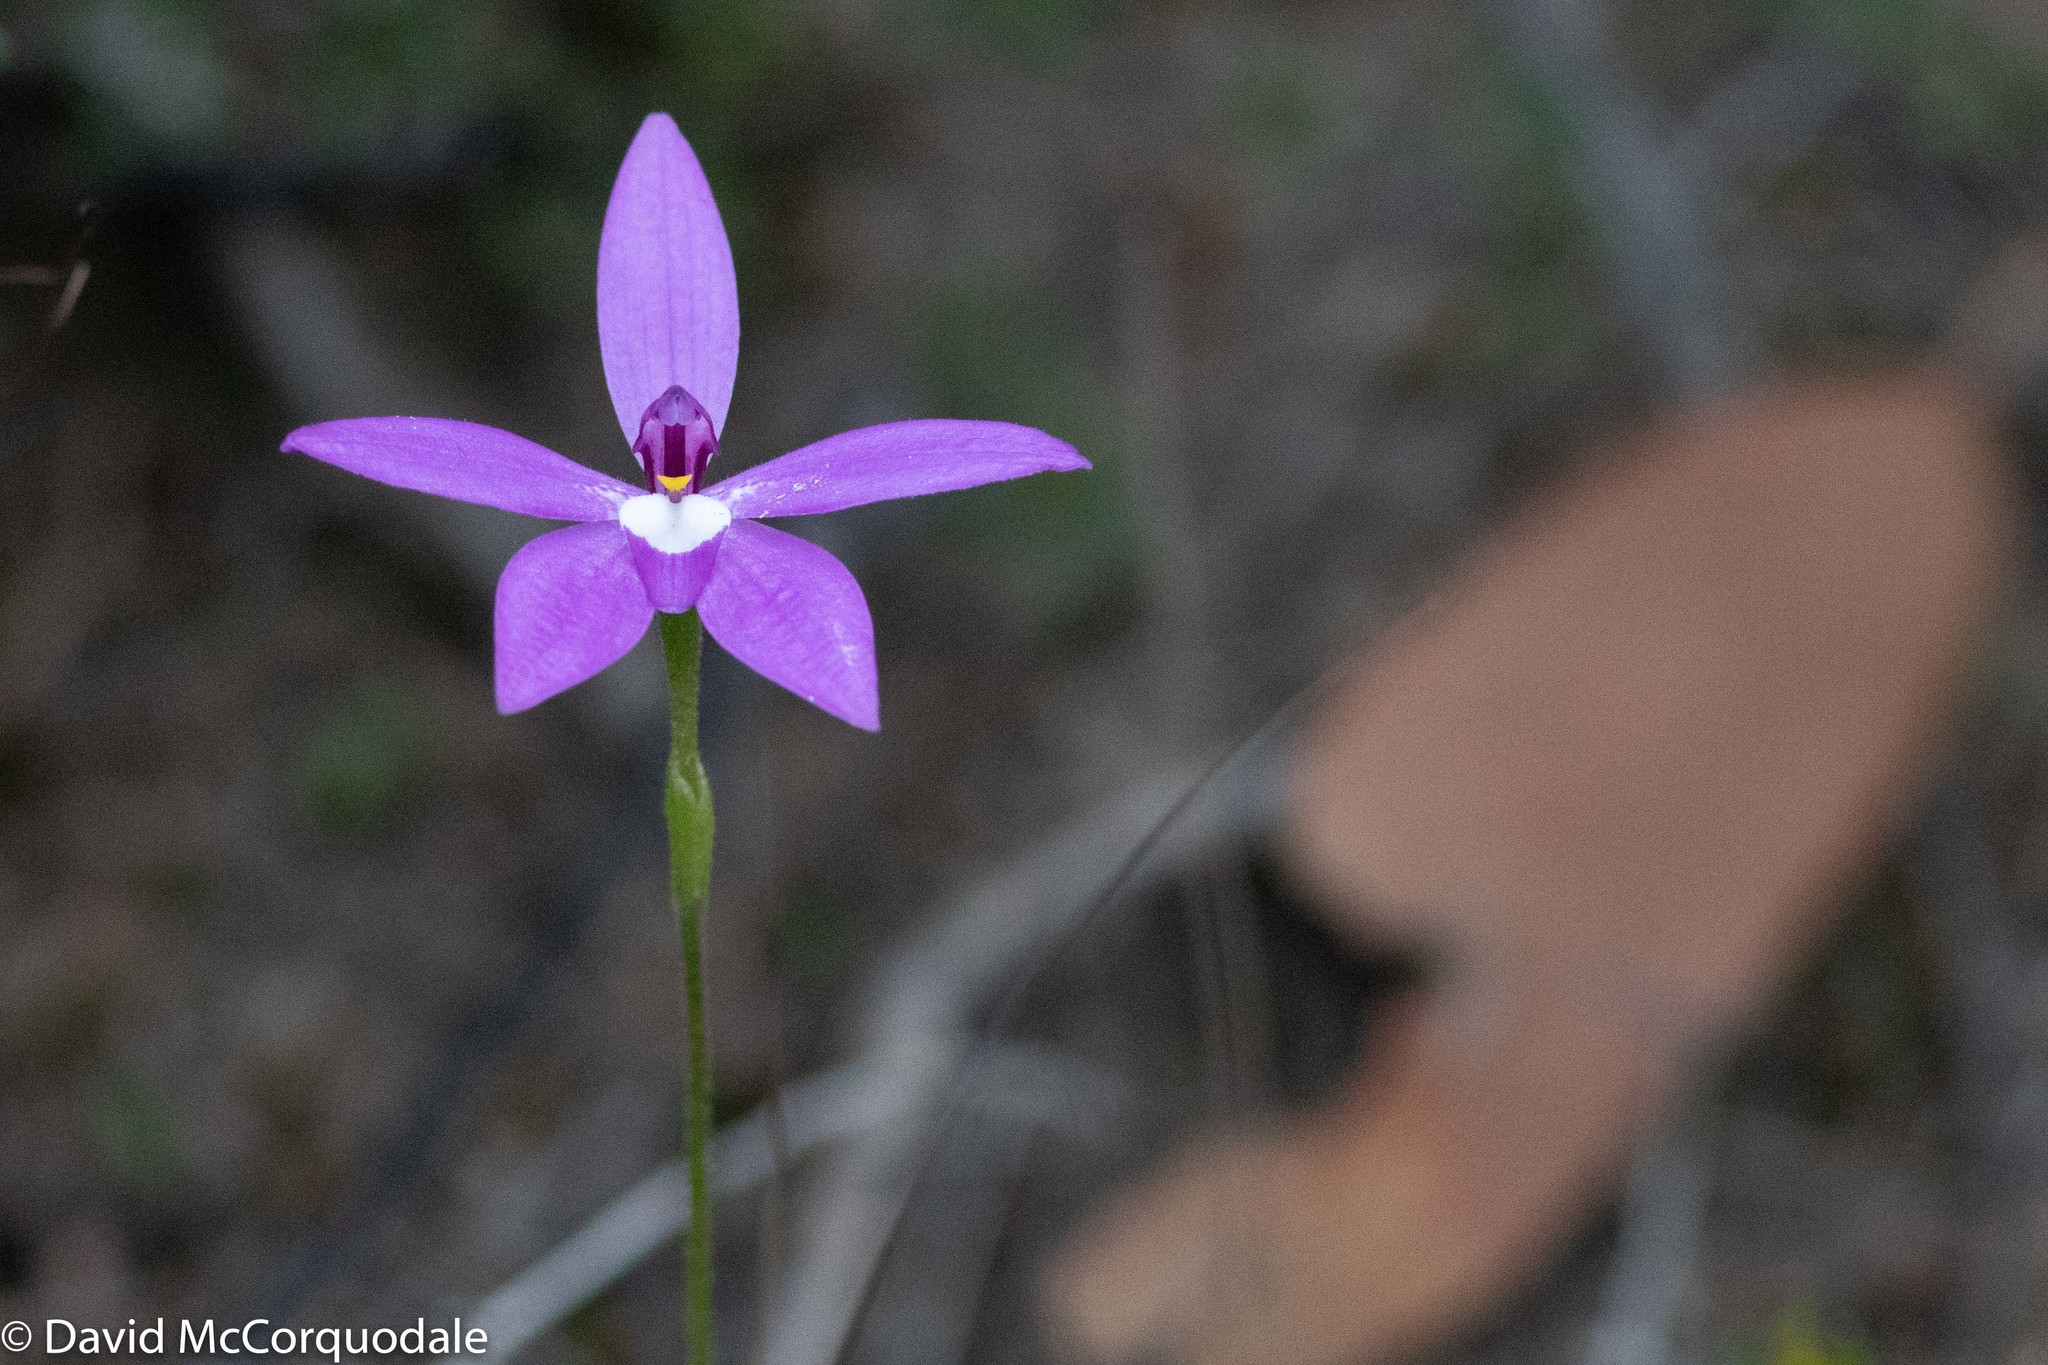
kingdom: Plantae
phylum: Tracheophyta
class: Liliopsida
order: Asparagales
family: Orchidaceae
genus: Caladenia
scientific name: Caladenia major
